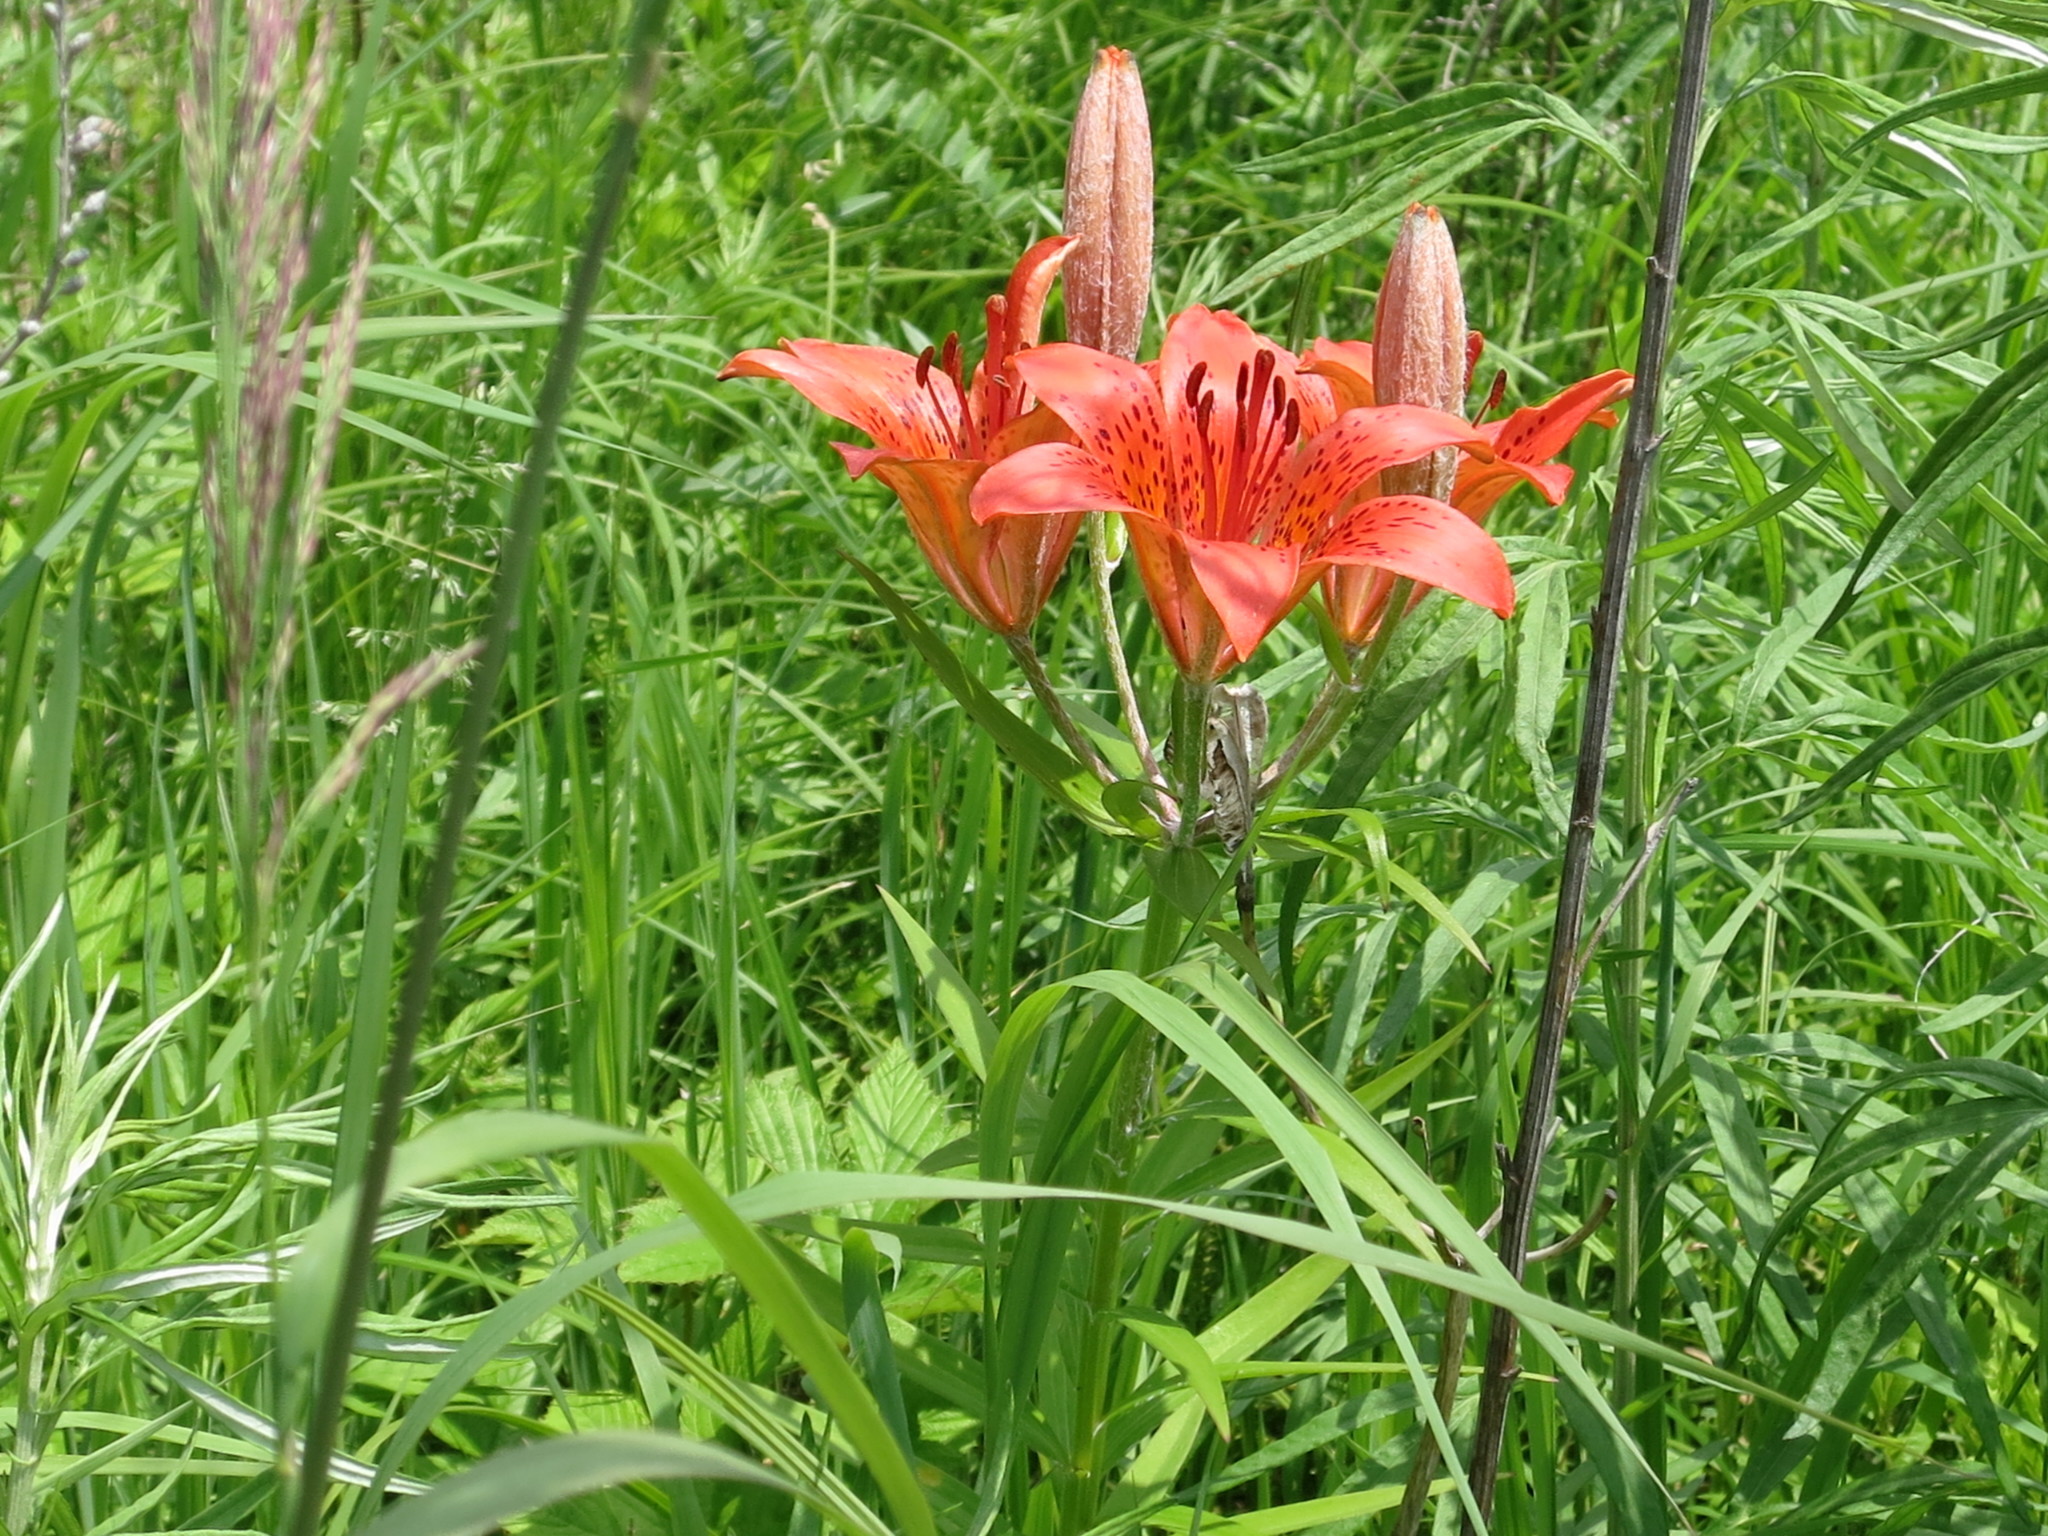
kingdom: Plantae
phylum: Tracheophyta
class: Liliopsida
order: Liliales
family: Liliaceae
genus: Lilium
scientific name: Lilium pensylvanicum
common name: Candlestick lily
